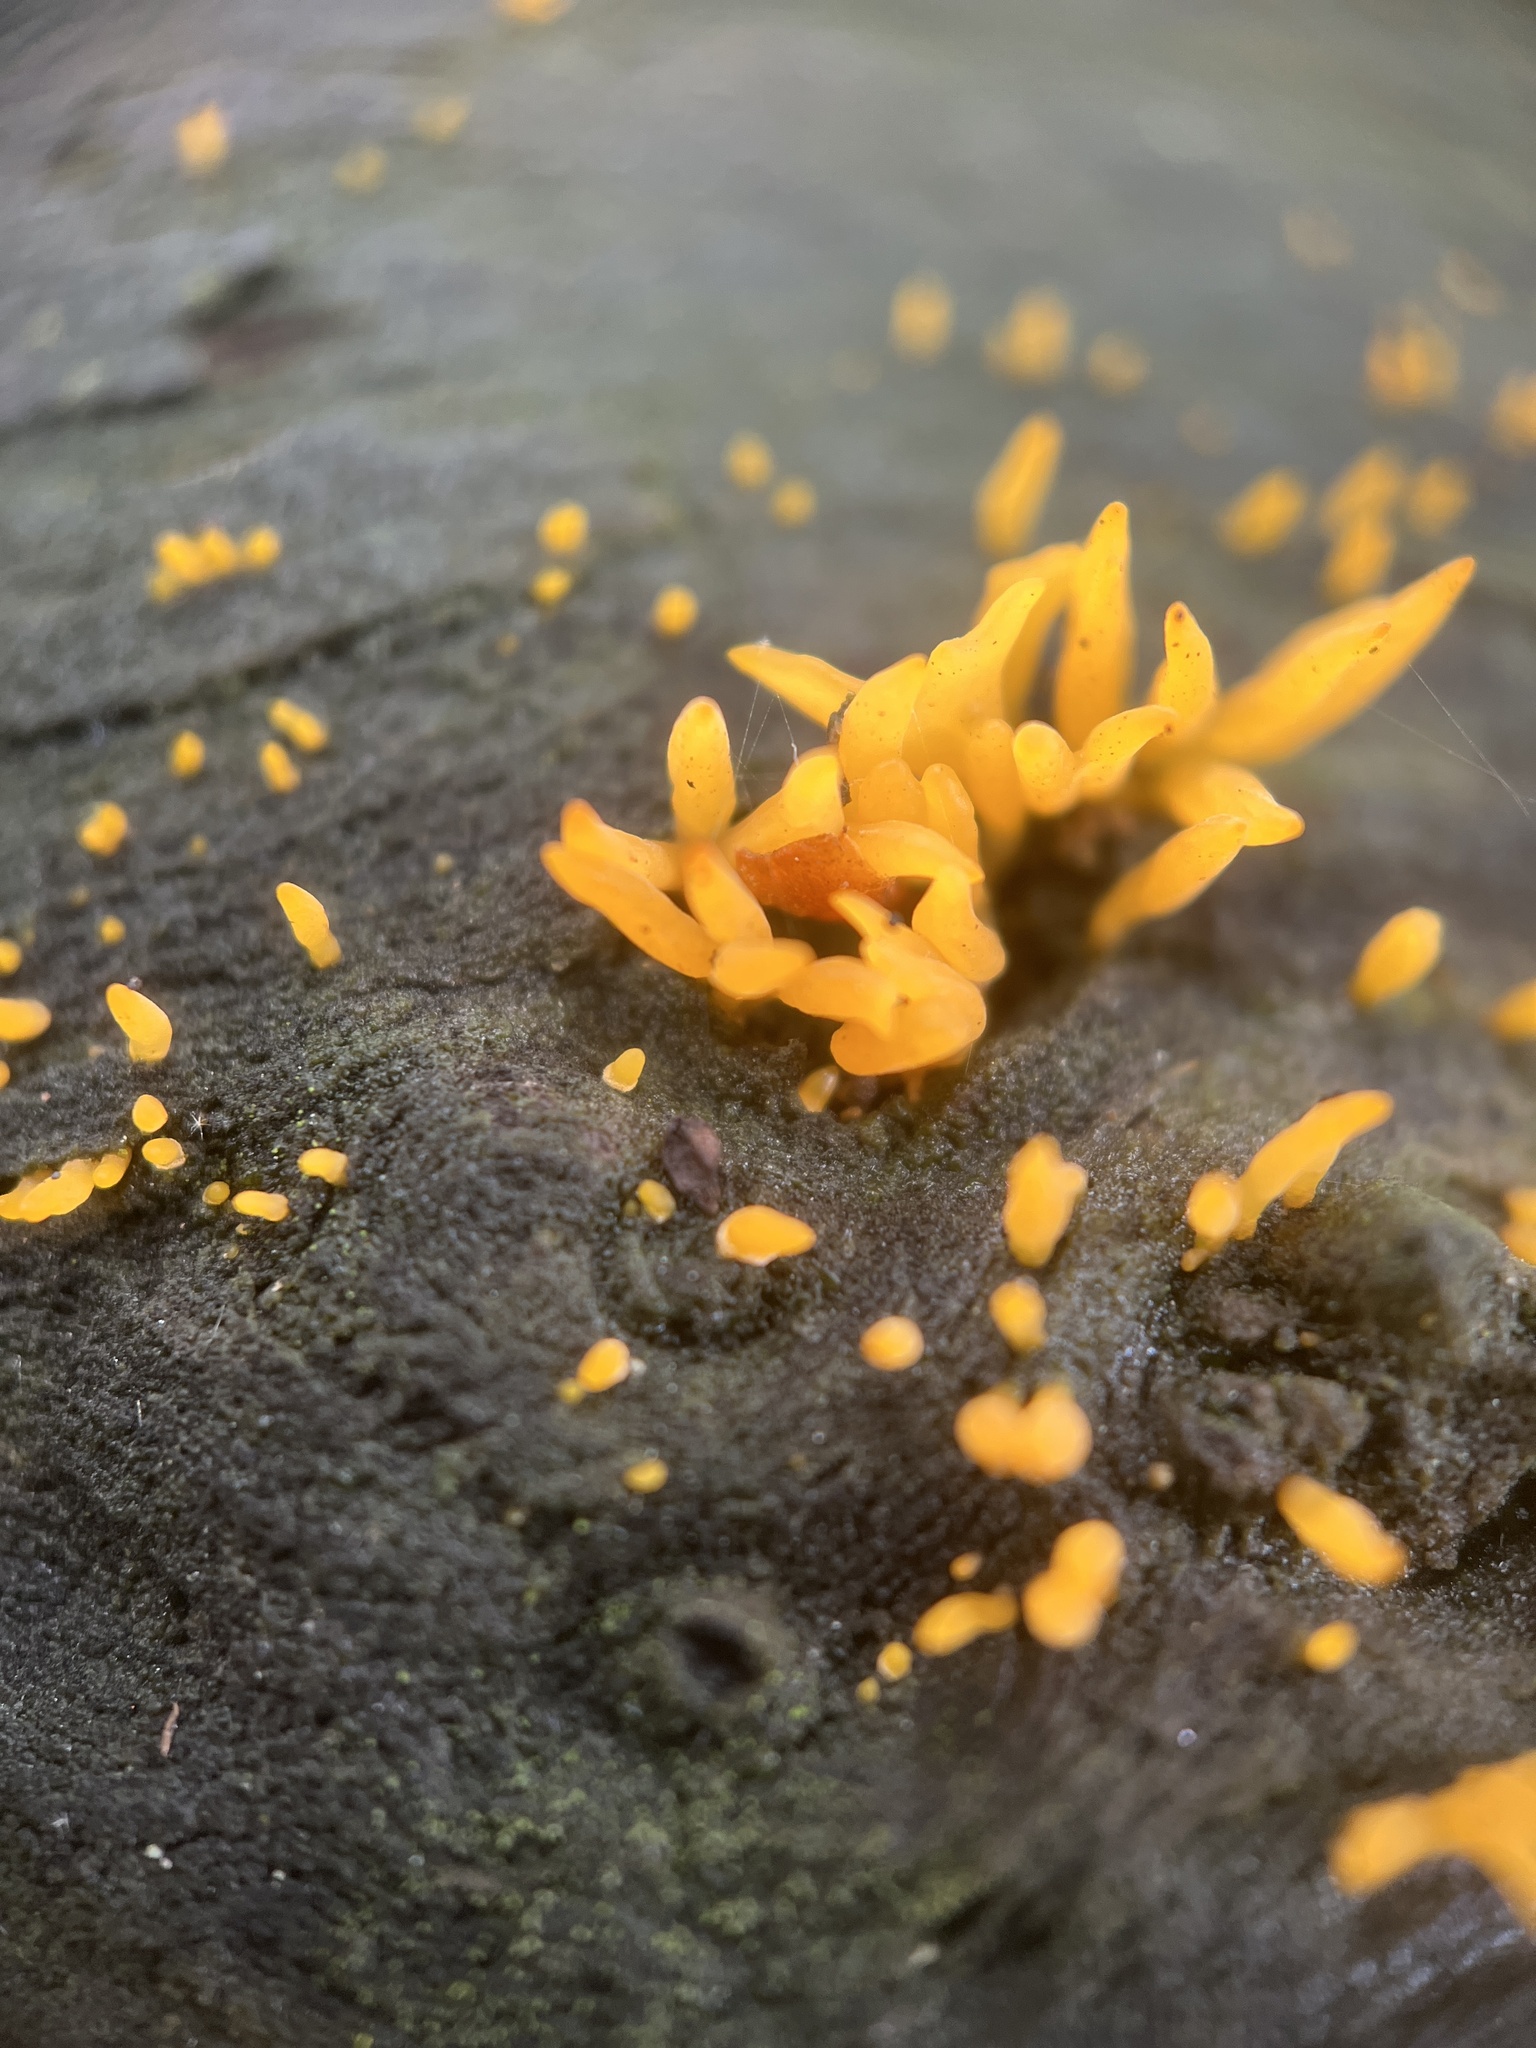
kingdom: Fungi
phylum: Basidiomycota
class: Dacrymycetes
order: Dacrymycetales
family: Dacrymycetaceae
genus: Calocera
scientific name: Calocera cornea
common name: Small stagshorn
